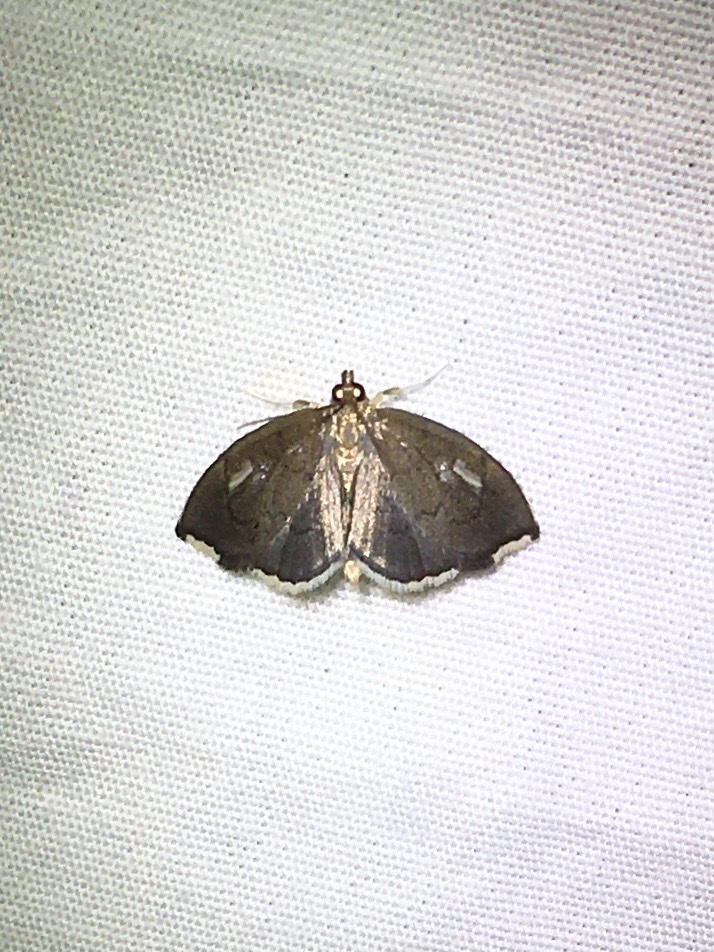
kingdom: Animalia
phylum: Arthropoda
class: Insecta
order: Lepidoptera
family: Crambidae
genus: Perispasta
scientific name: Perispasta caeculalis
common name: Titian peale's moth
